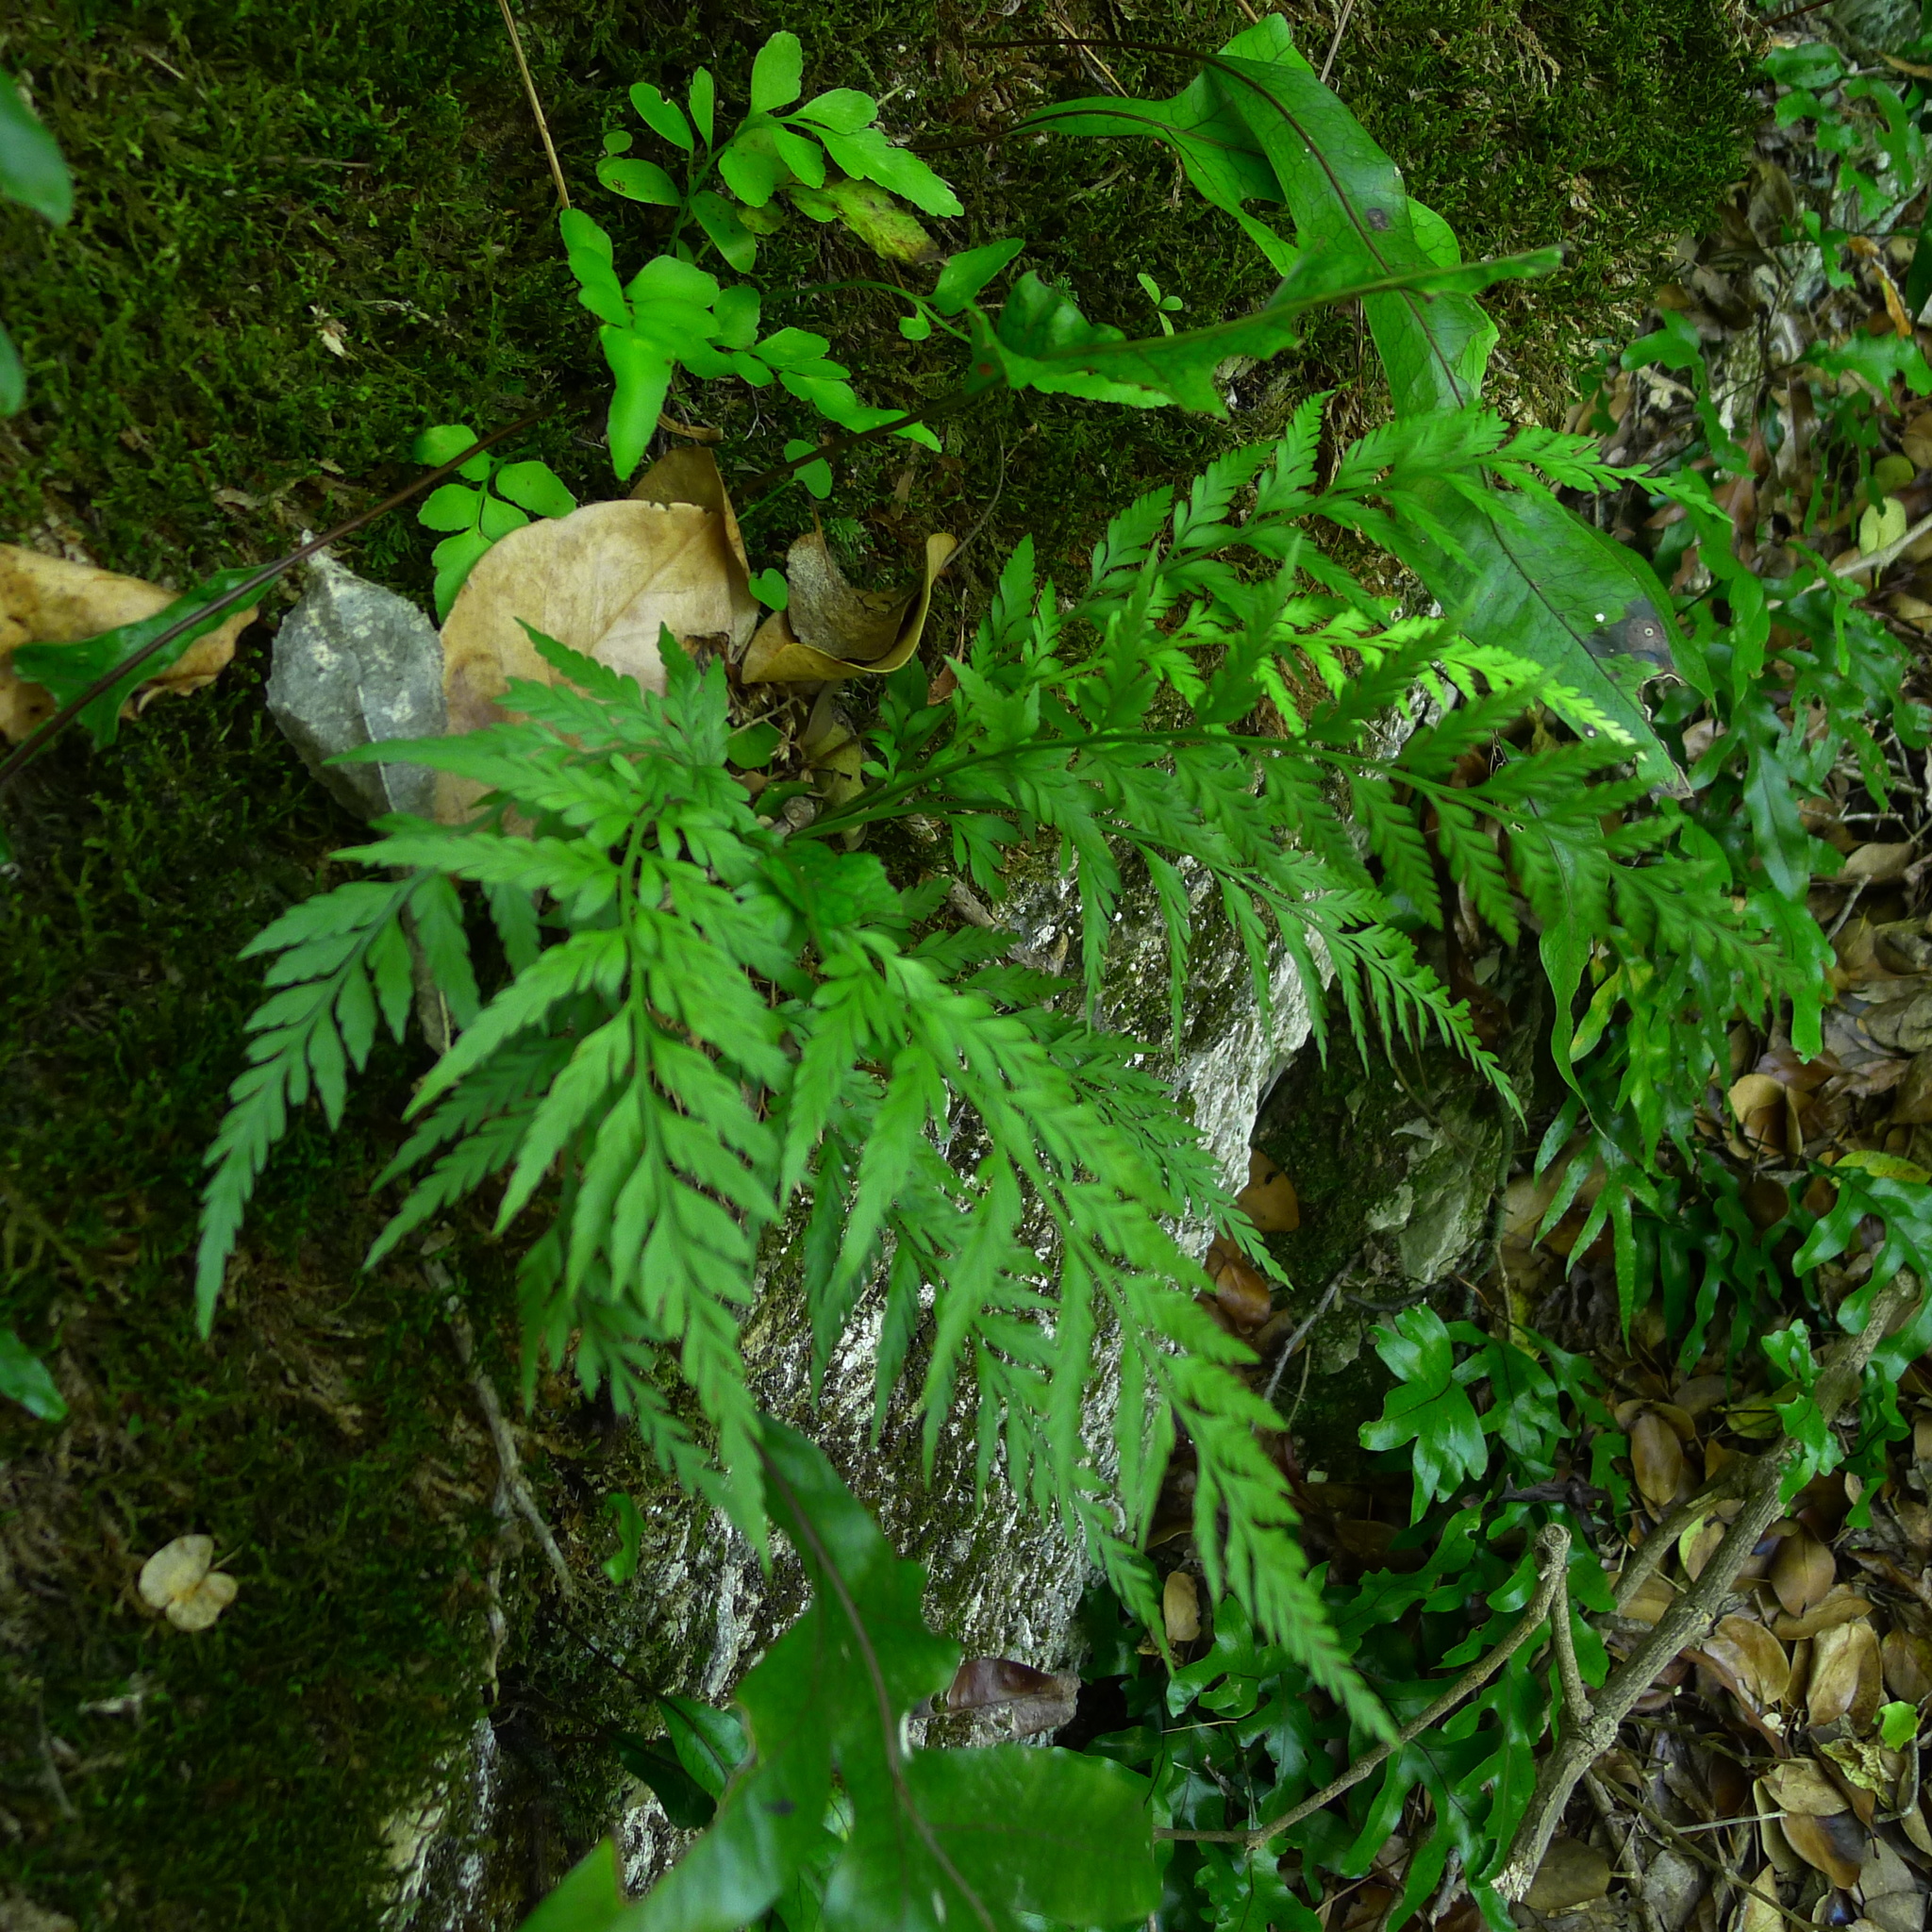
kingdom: Plantae
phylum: Tracheophyta
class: Polypodiopsida
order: Polypodiales
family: Aspleniaceae
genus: Asplenium
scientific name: Asplenium appendiculatum
